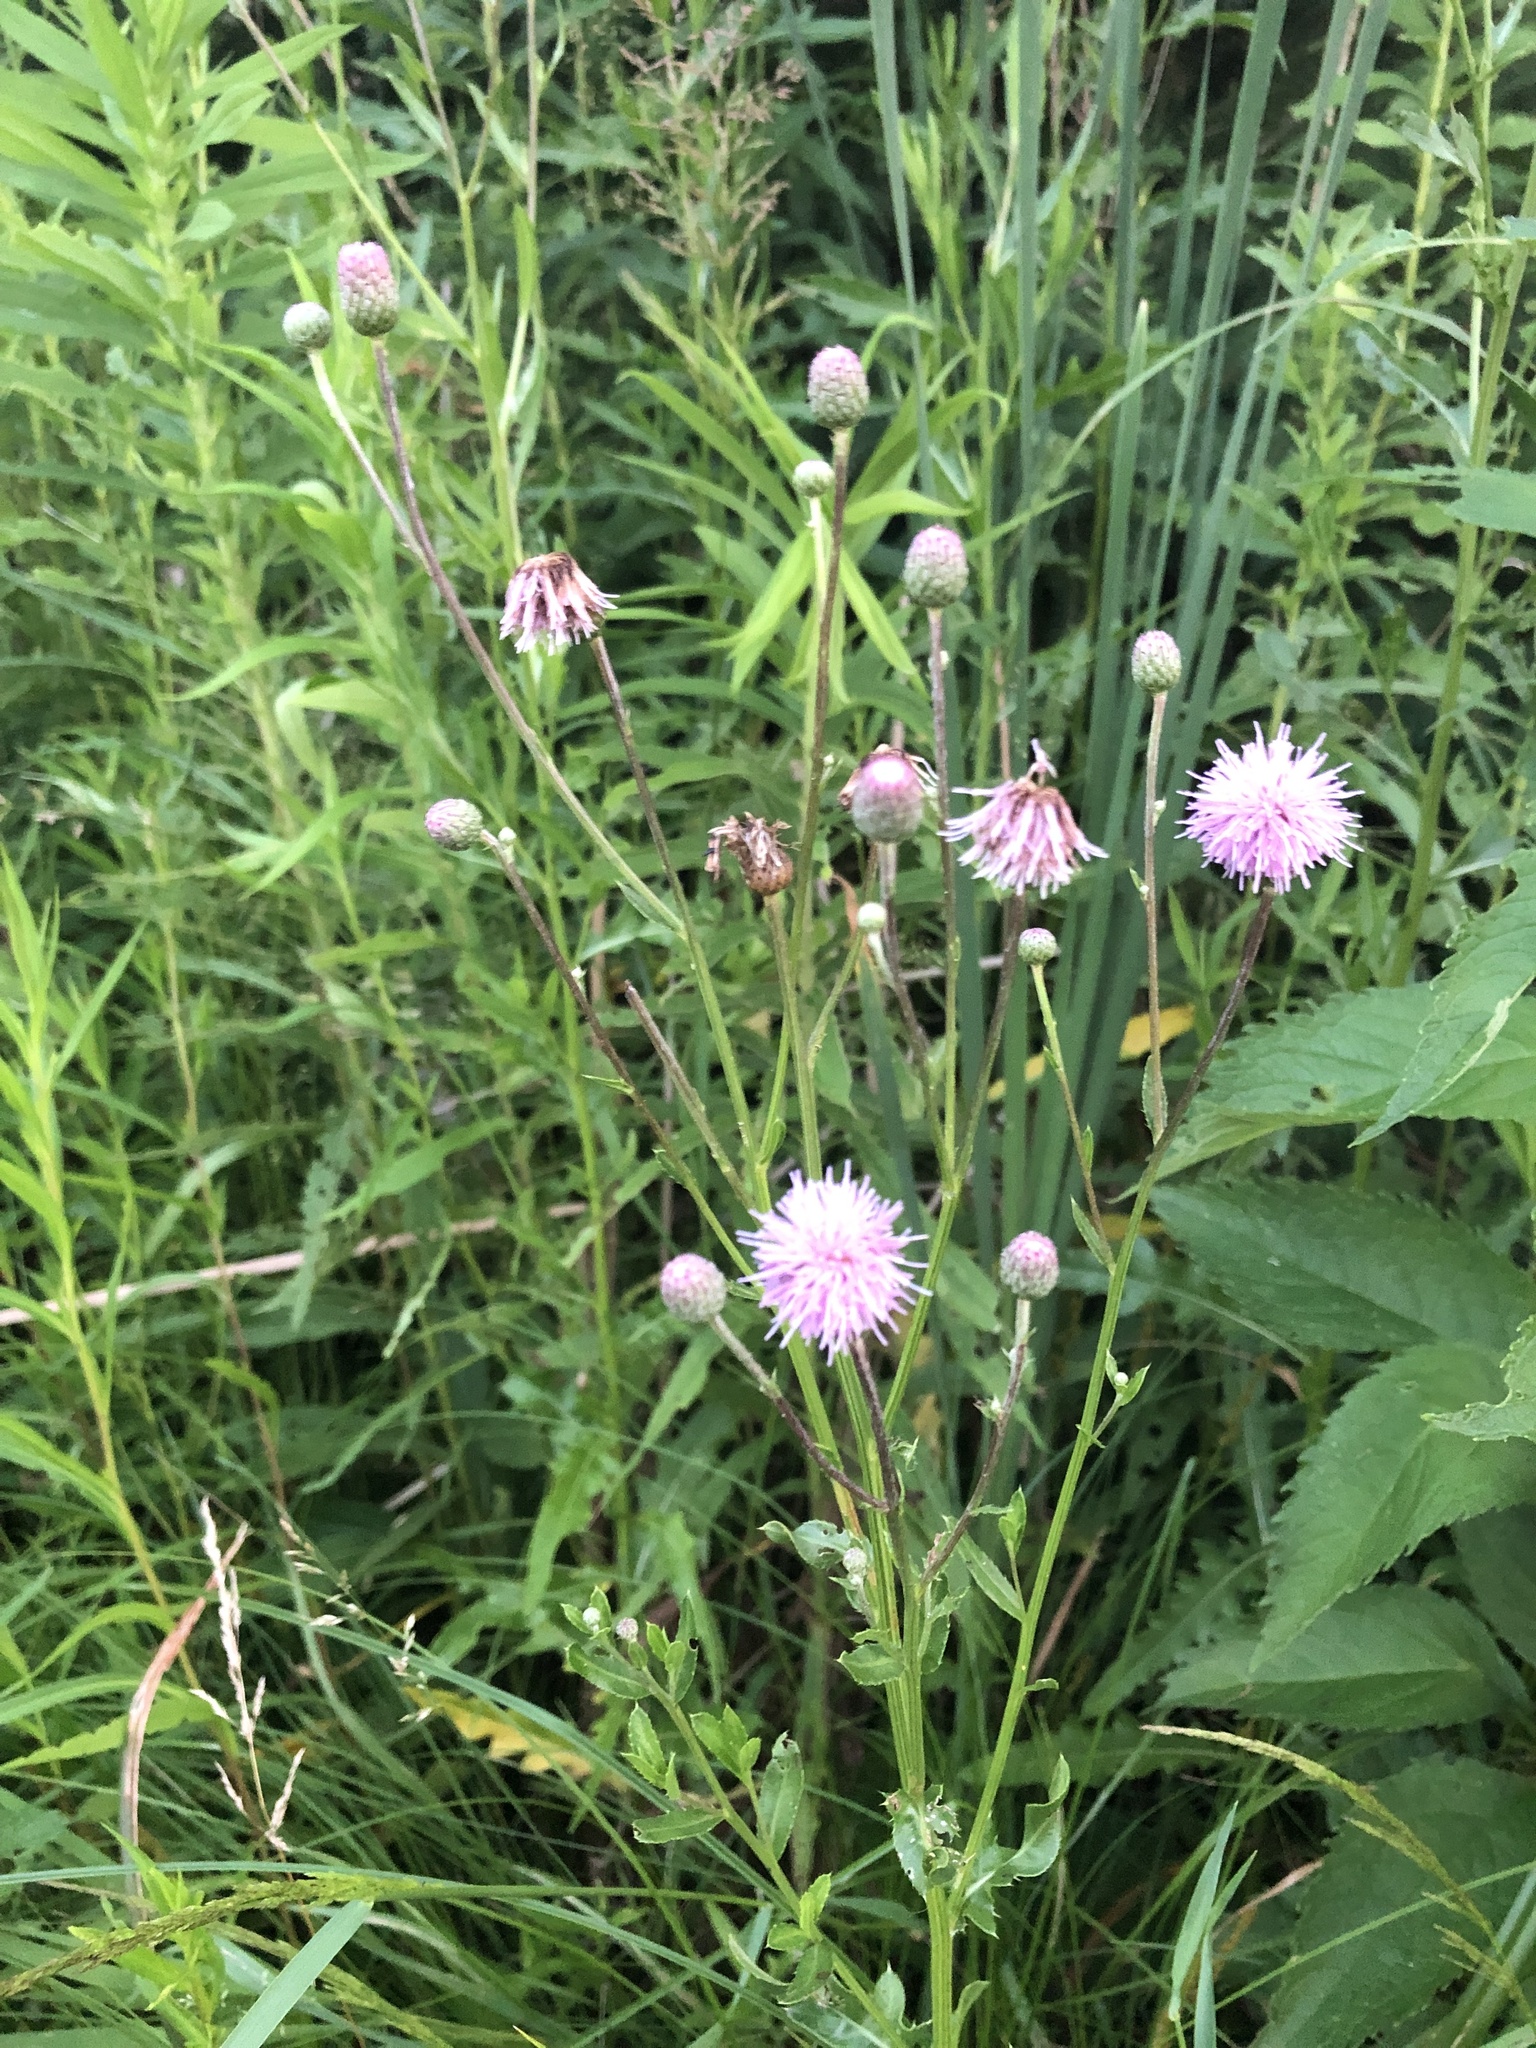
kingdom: Plantae
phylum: Tracheophyta
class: Magnoliopsida
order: Asterales
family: Asteraceae
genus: Cirsium
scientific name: Cirsium arvense
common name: Creeping thistle
